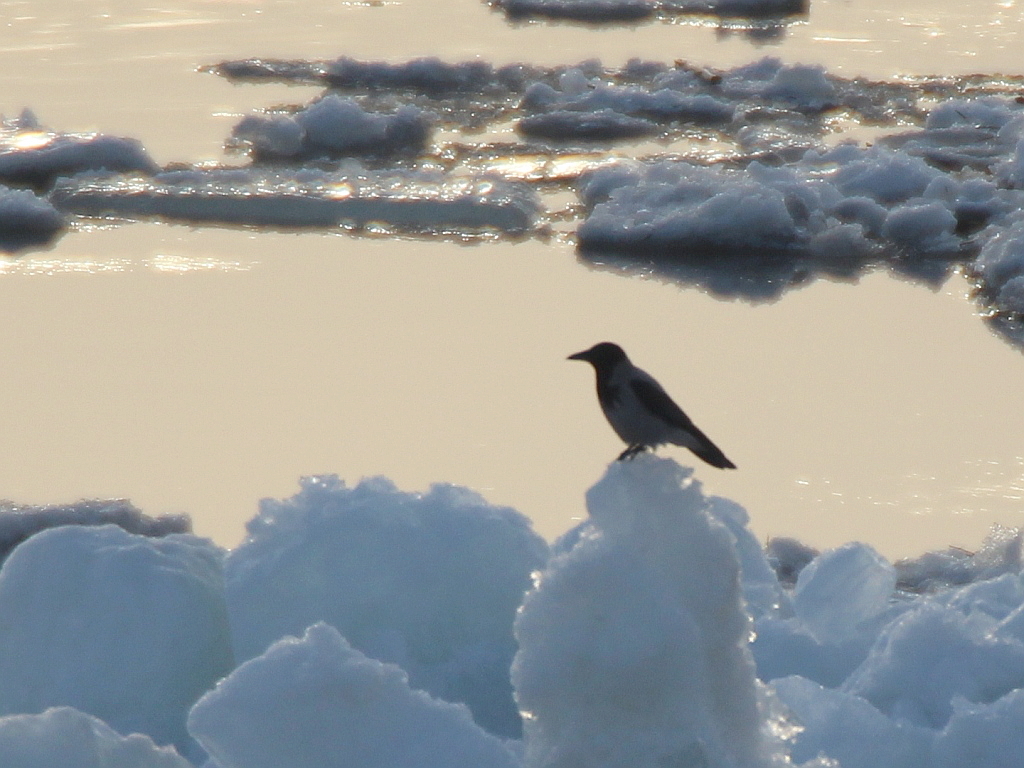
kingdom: Animalia
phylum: Chordata
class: Aves
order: Passeriformes
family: Corvidae
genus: Corvus
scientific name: Corvus cornix
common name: Hooded crow
